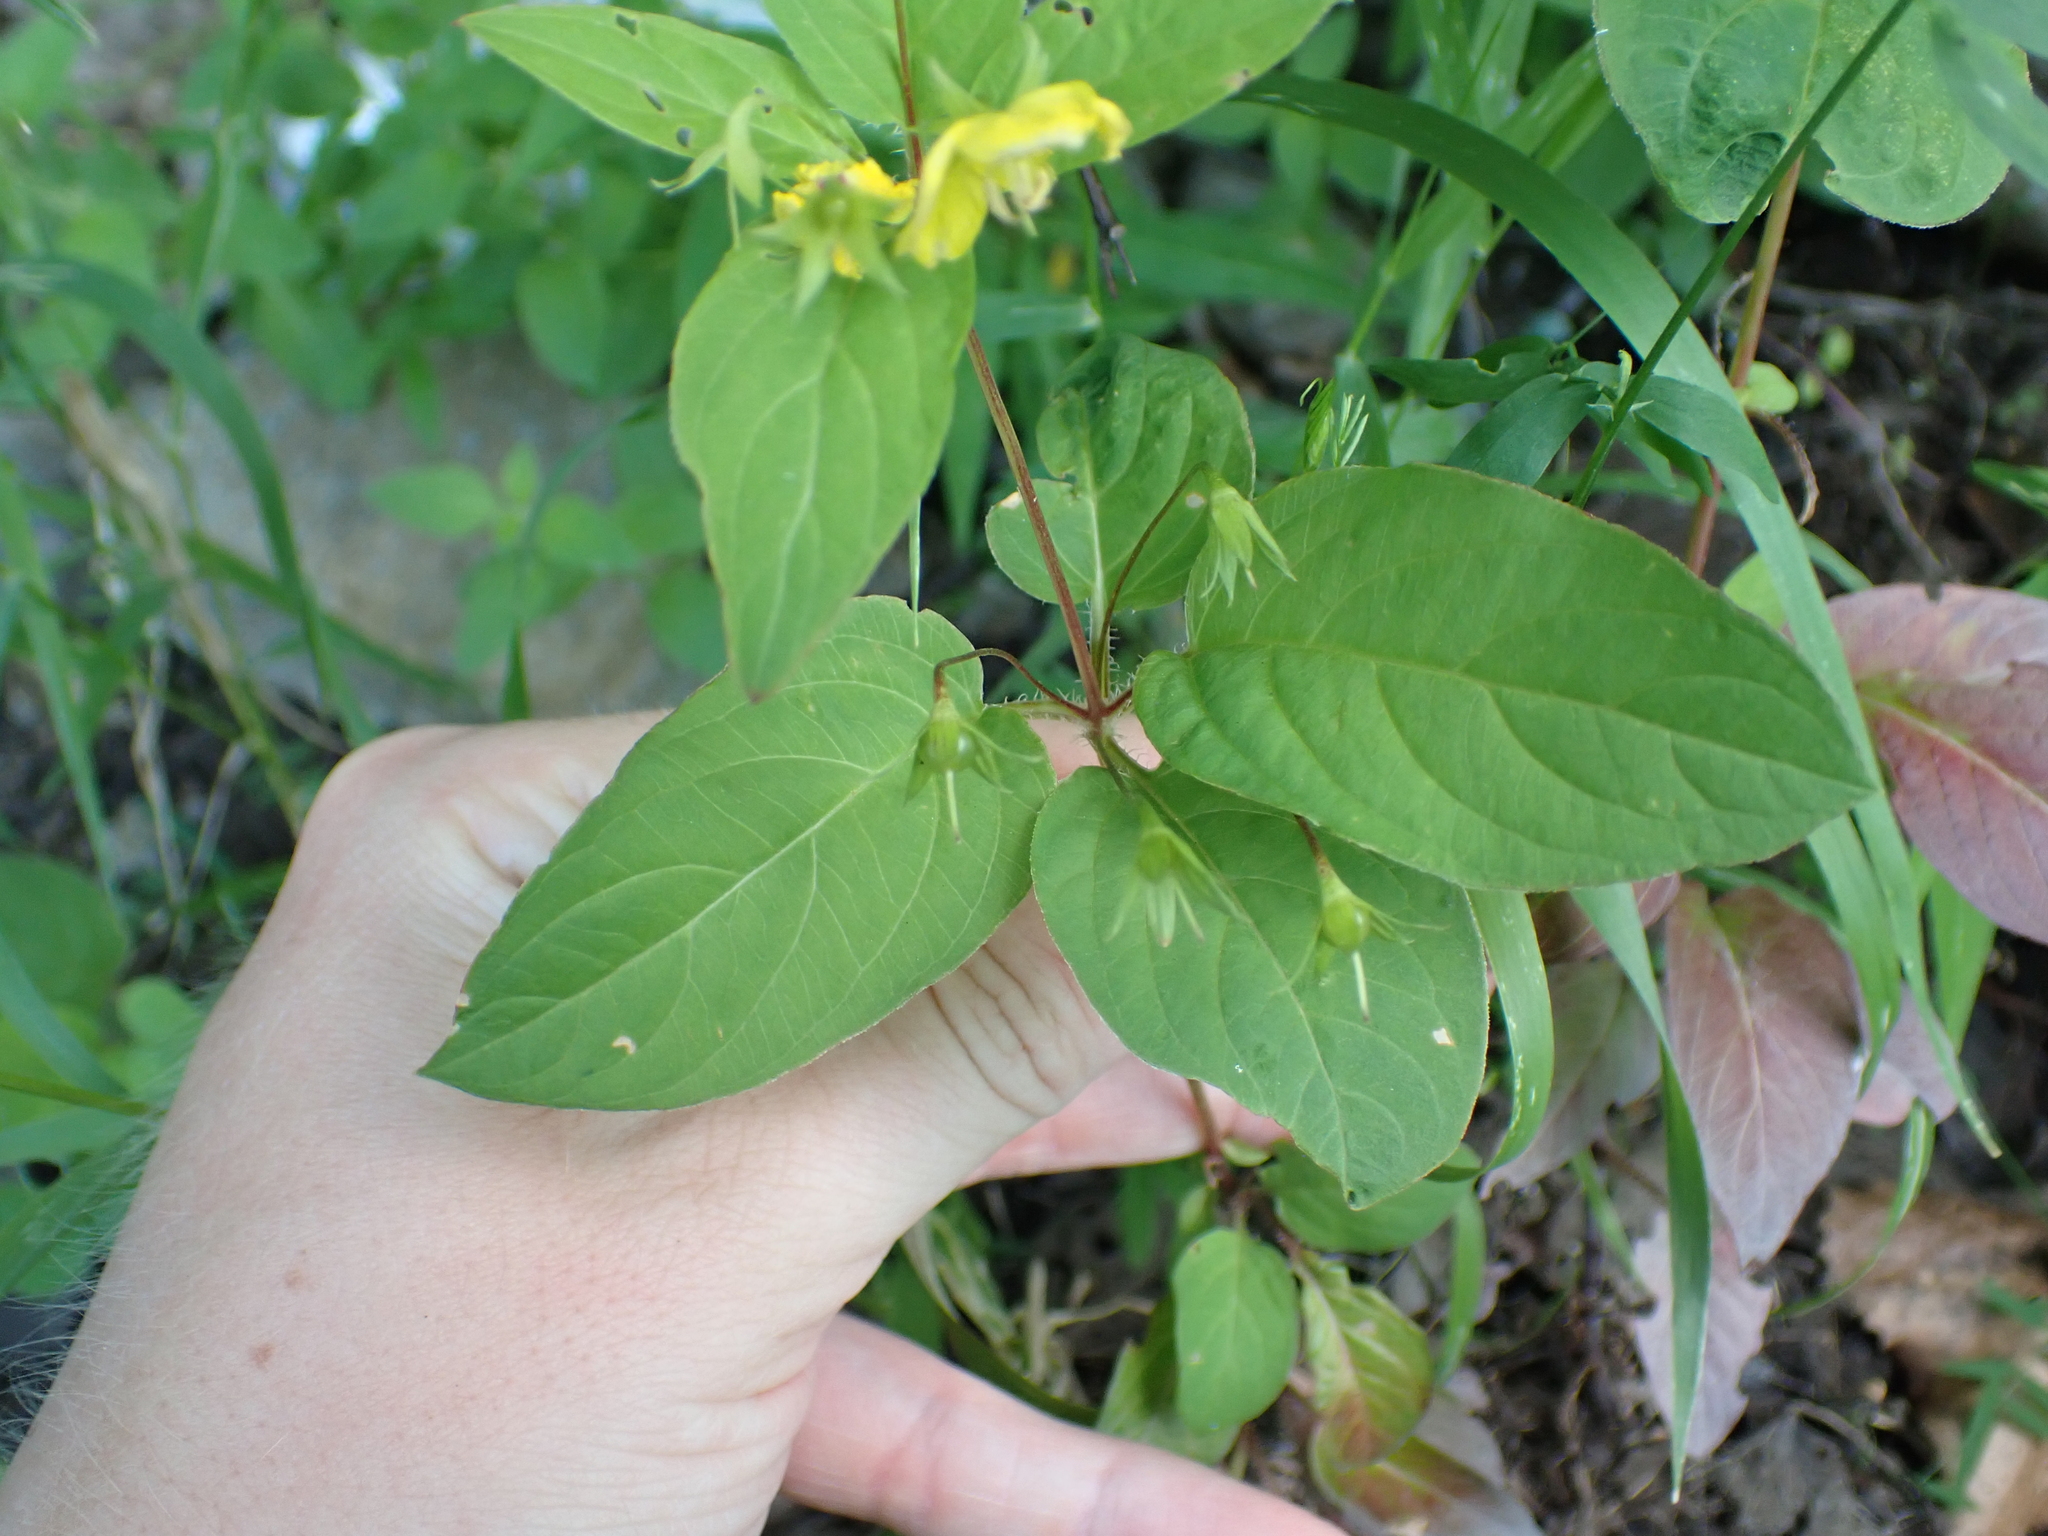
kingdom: Plantae
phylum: Tracheophyta
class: Magnoliopsida
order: Ericales
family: Primulaceae
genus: Lysimachia
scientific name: Lysimachia ciliata
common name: Fringed loosestrife
